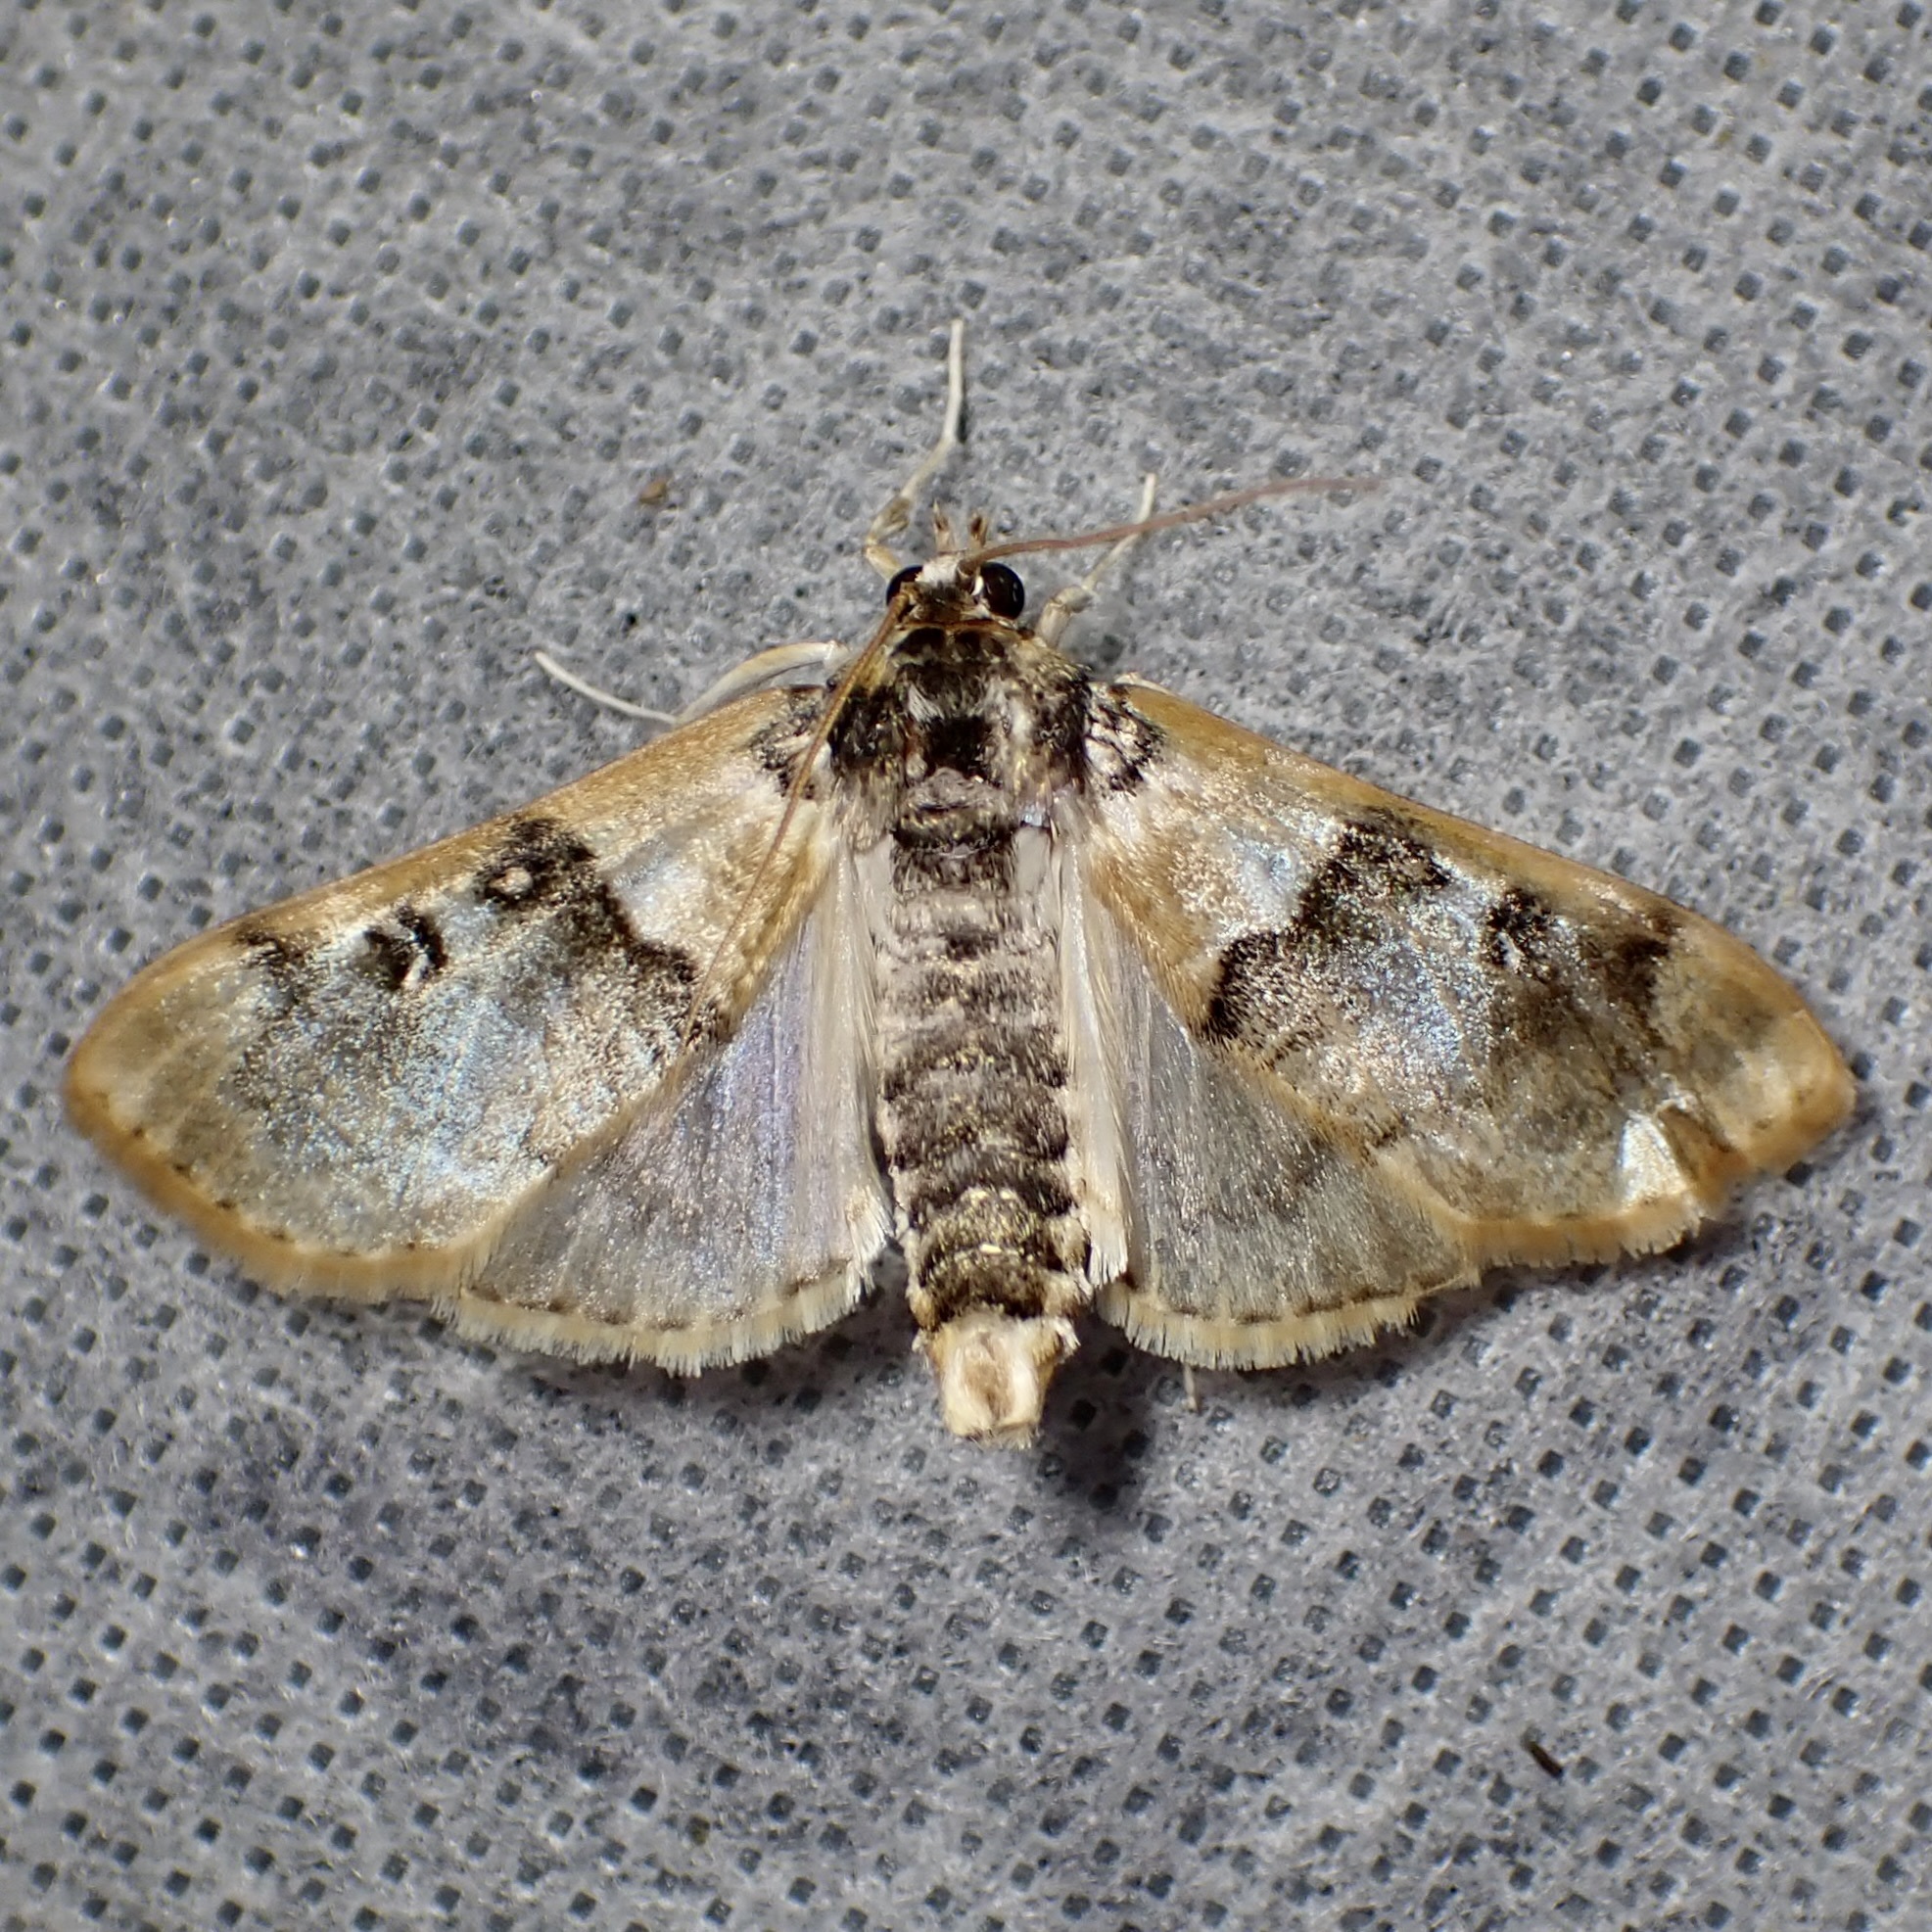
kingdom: Animalia
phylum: Arthropoda
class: Insecta
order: Lepidoptera
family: Crambidae
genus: Laniifera
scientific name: Laniifera cyclades
